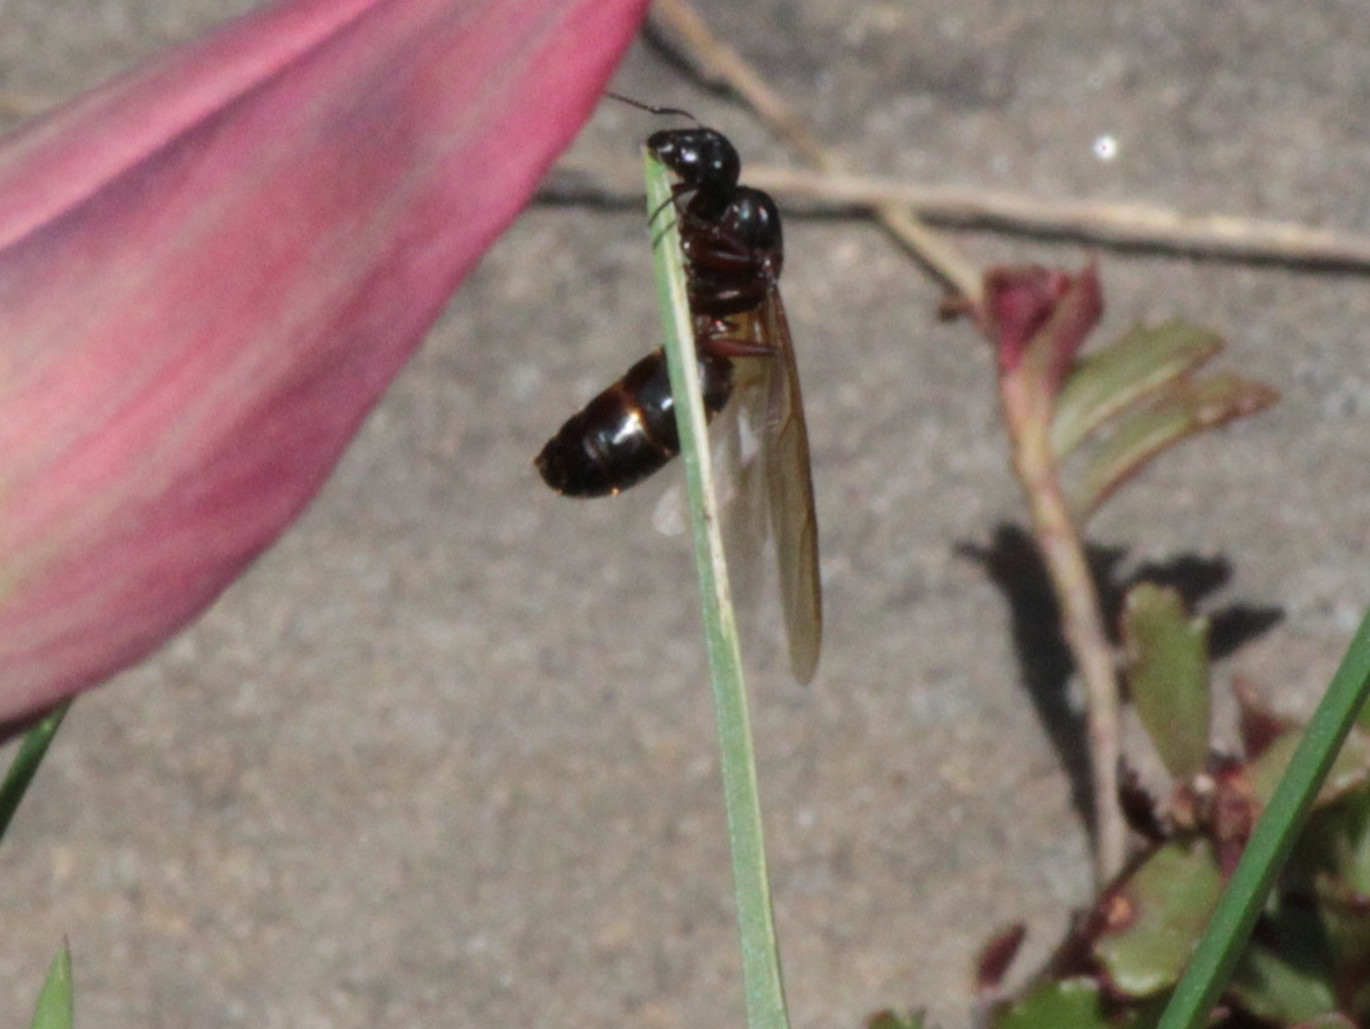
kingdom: Animalia
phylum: Arthropoda
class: Insecta
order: Hymenoptera
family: Formicidae
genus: Camponotus
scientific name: Camponotus herculeanus
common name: Hercules ant
